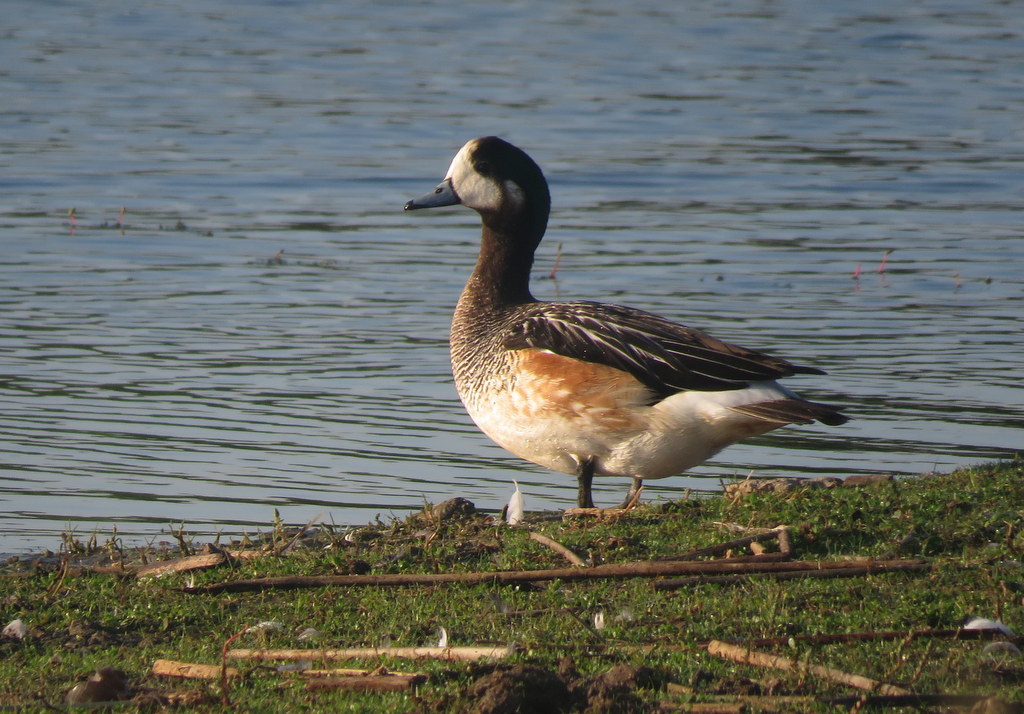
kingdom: Animalia
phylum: Chordata
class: Aves
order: Anseriformes
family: Anatidae
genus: Mareca
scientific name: Mareca sibilatrix
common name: Chiloe wigeon
